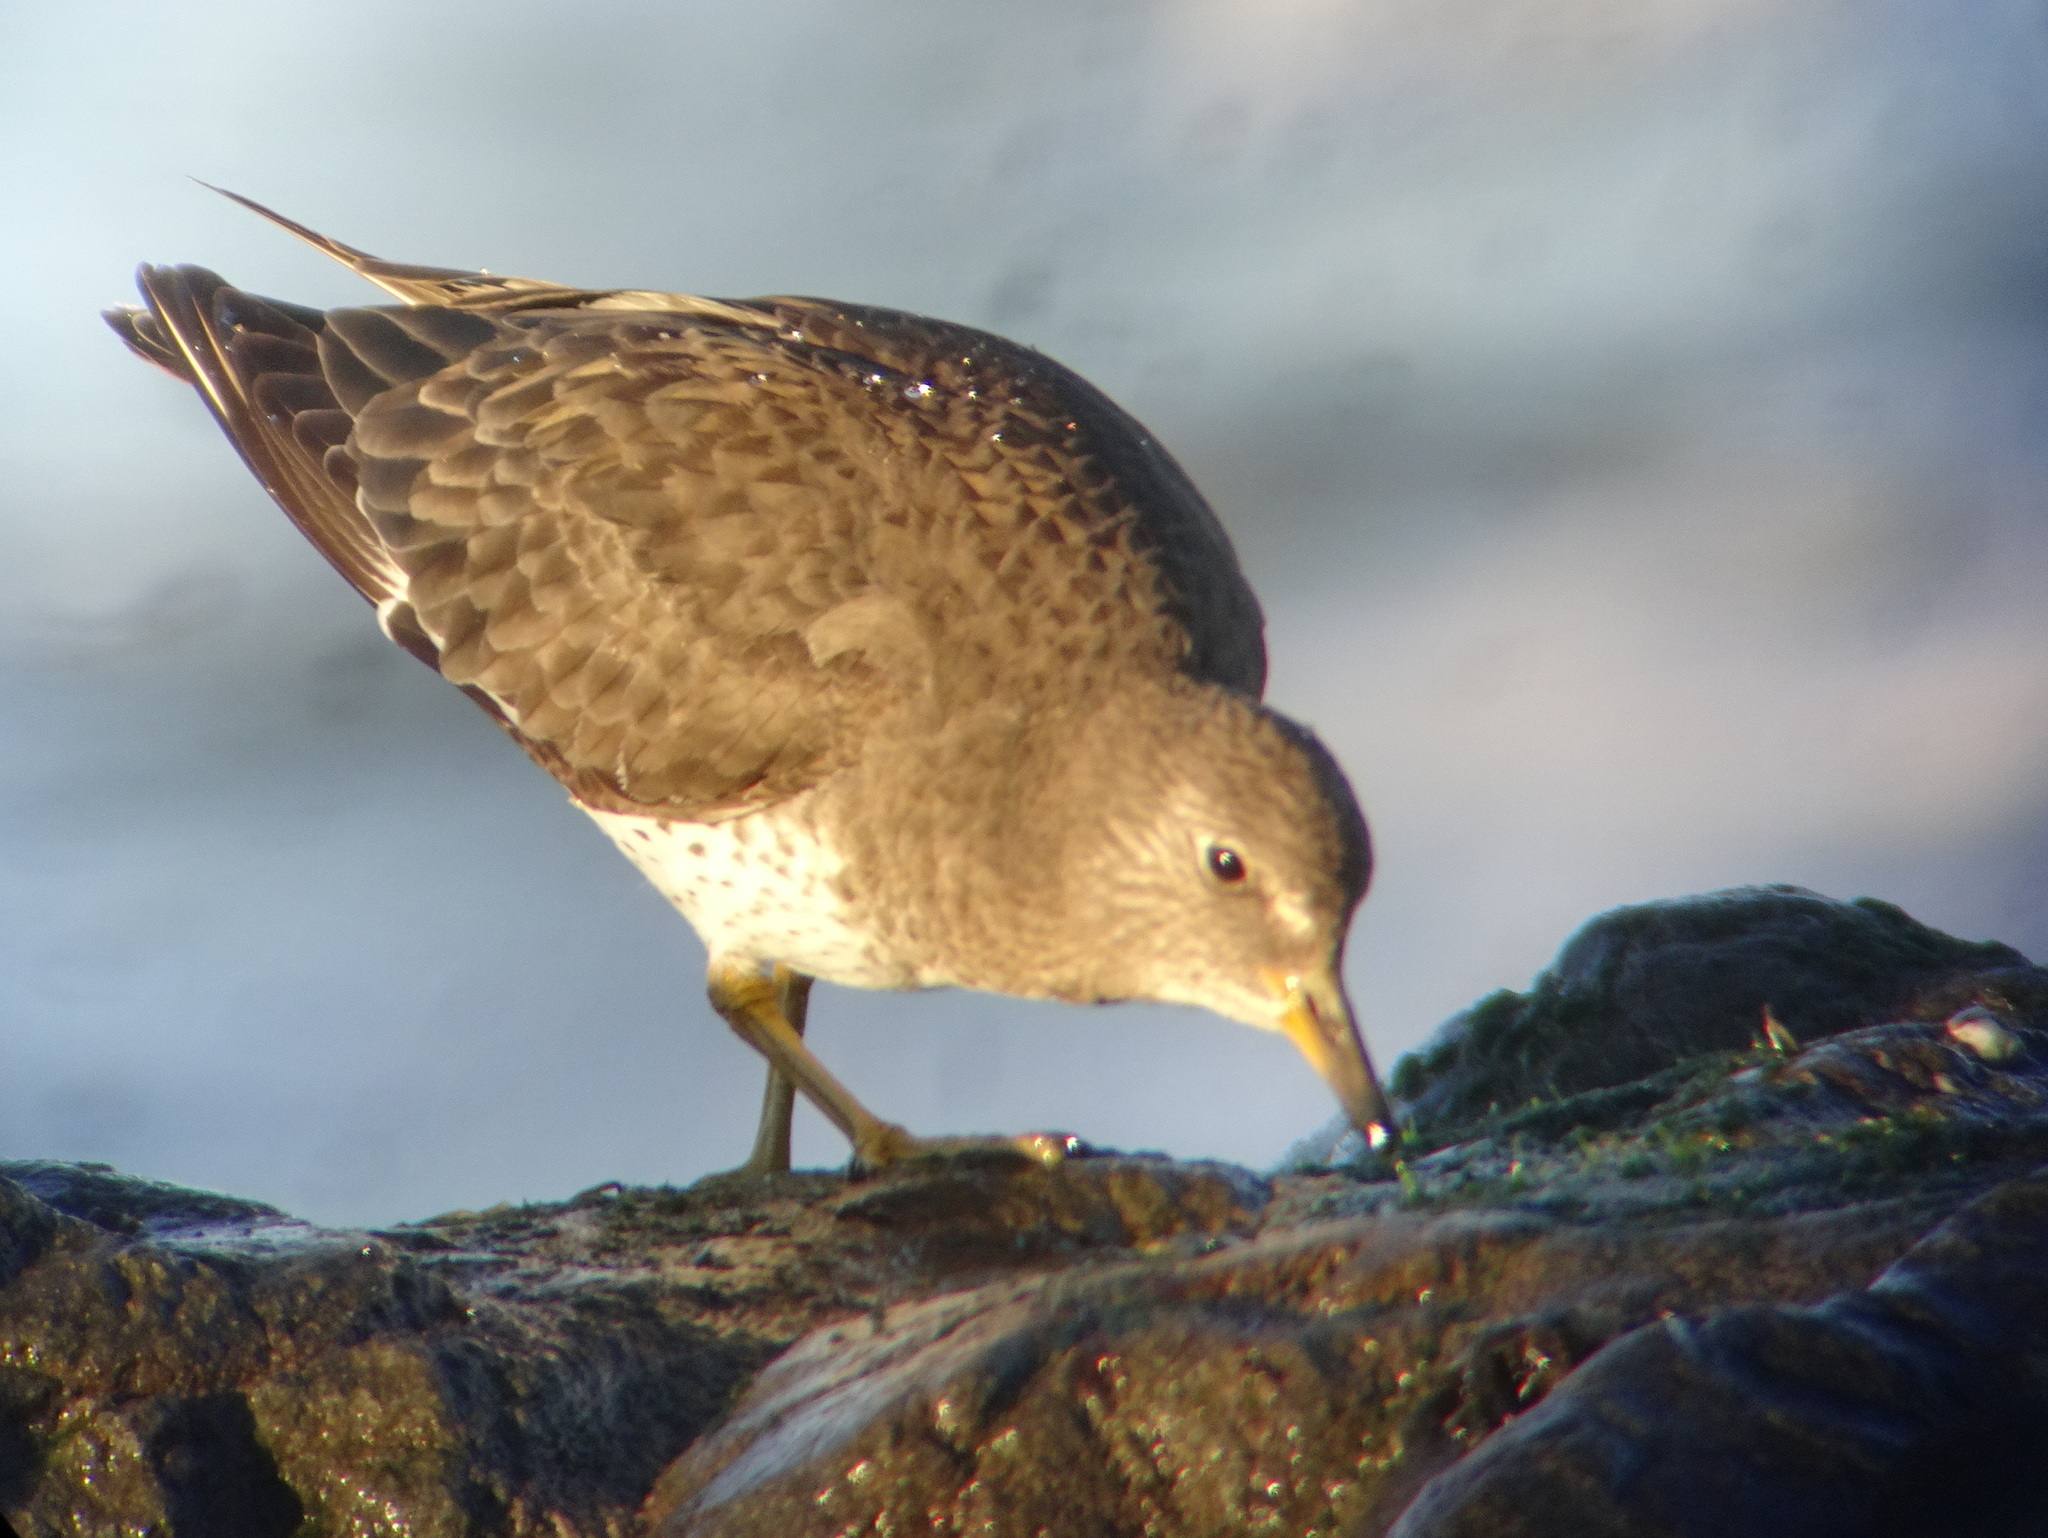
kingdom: Animalia
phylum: Chordata
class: Aves
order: Charadriiformes
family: Scolopacidae
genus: Calidris
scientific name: Calidris virgata
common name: Surfbird
